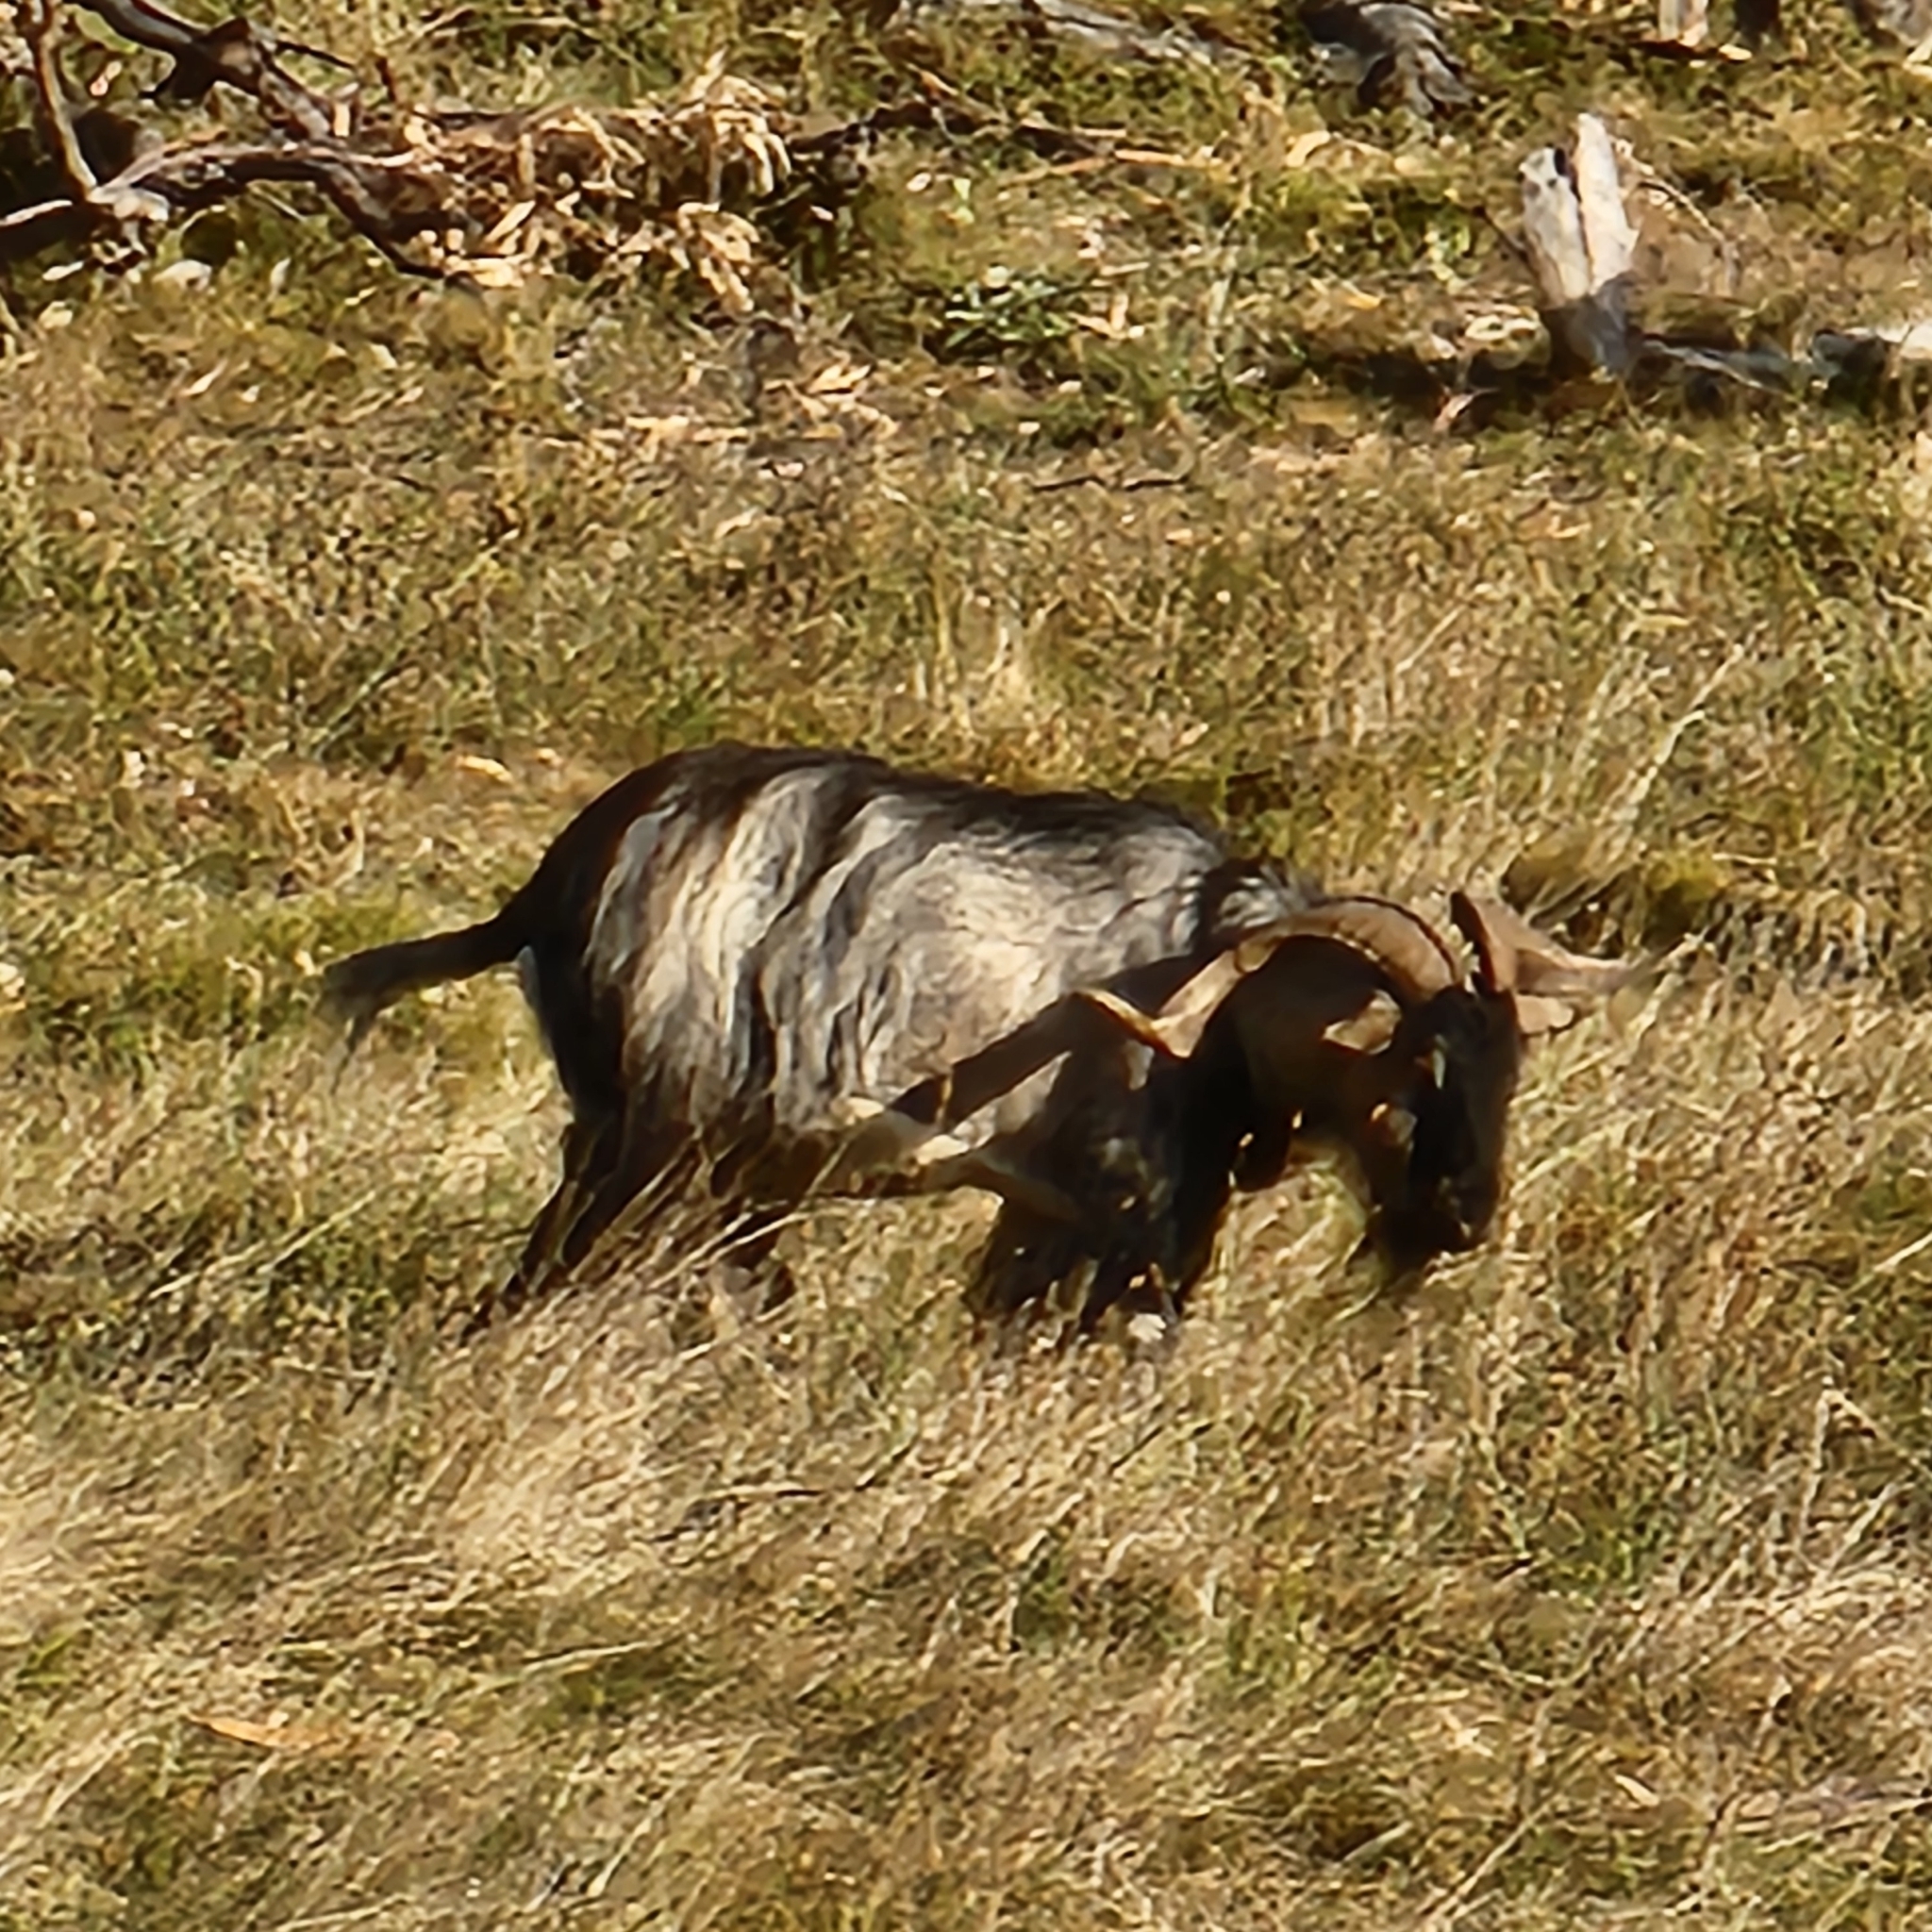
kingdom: Animalia
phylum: Chordata
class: Mammalia
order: Artiodactyla
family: Bovidae
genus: Capra
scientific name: Capra hircus
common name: Domestic goat
